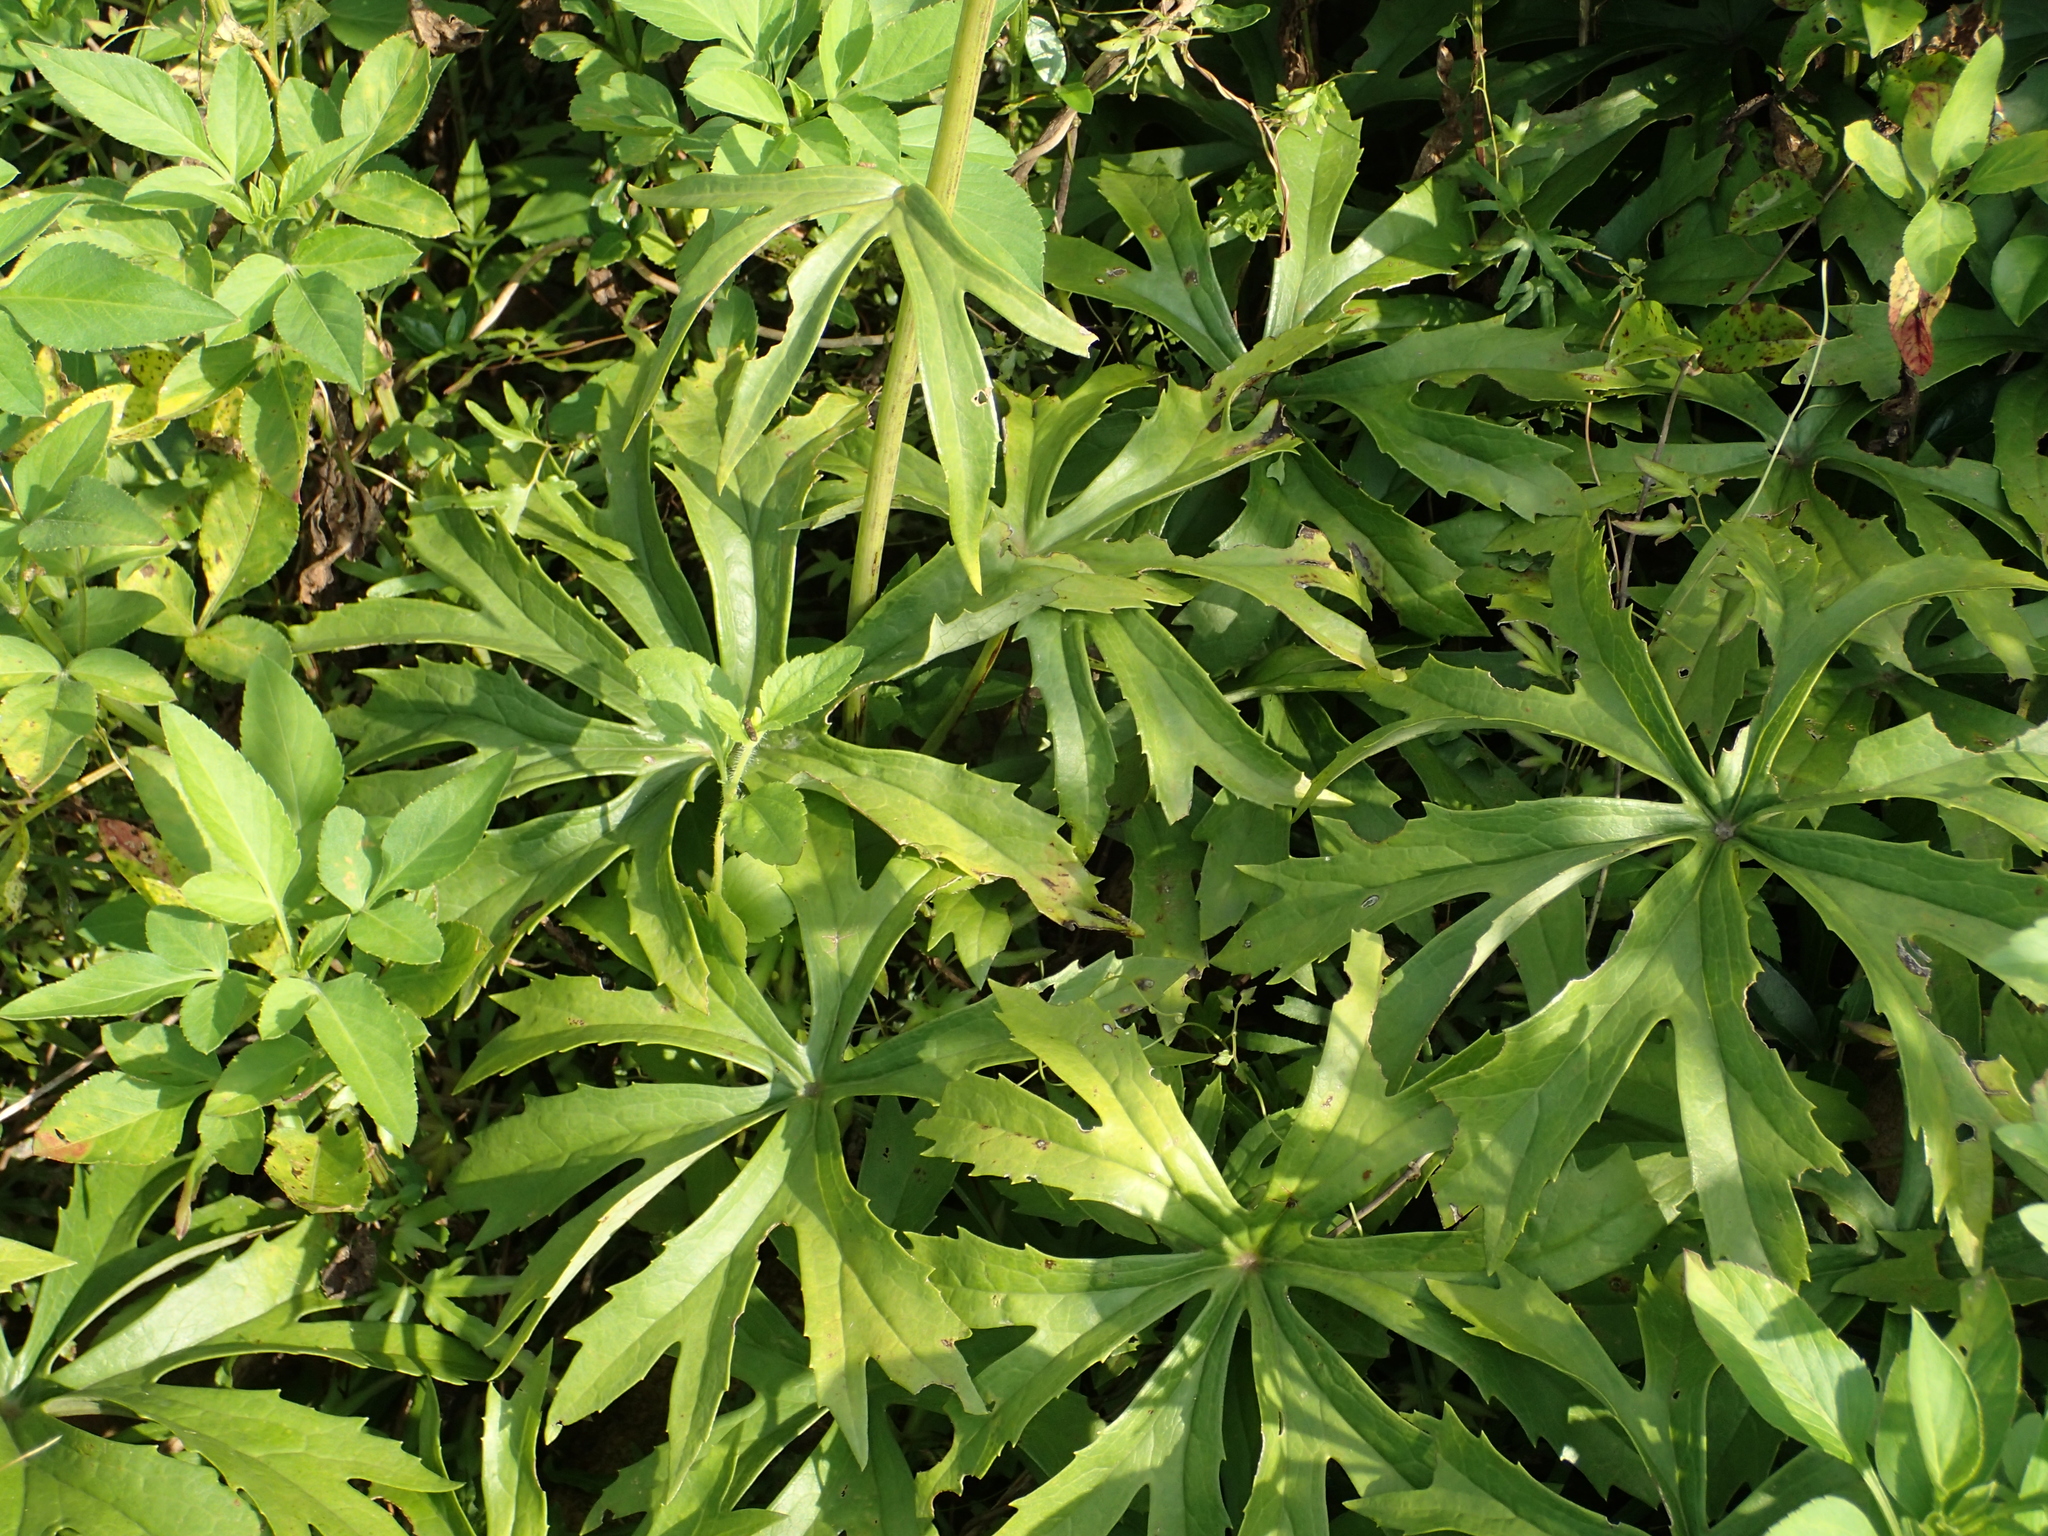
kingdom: Plantae
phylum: Tracheophyta
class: Magnoliopsida
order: Asterales
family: Asteraceae
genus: Syneilesis
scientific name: Syneilesis hayatae
